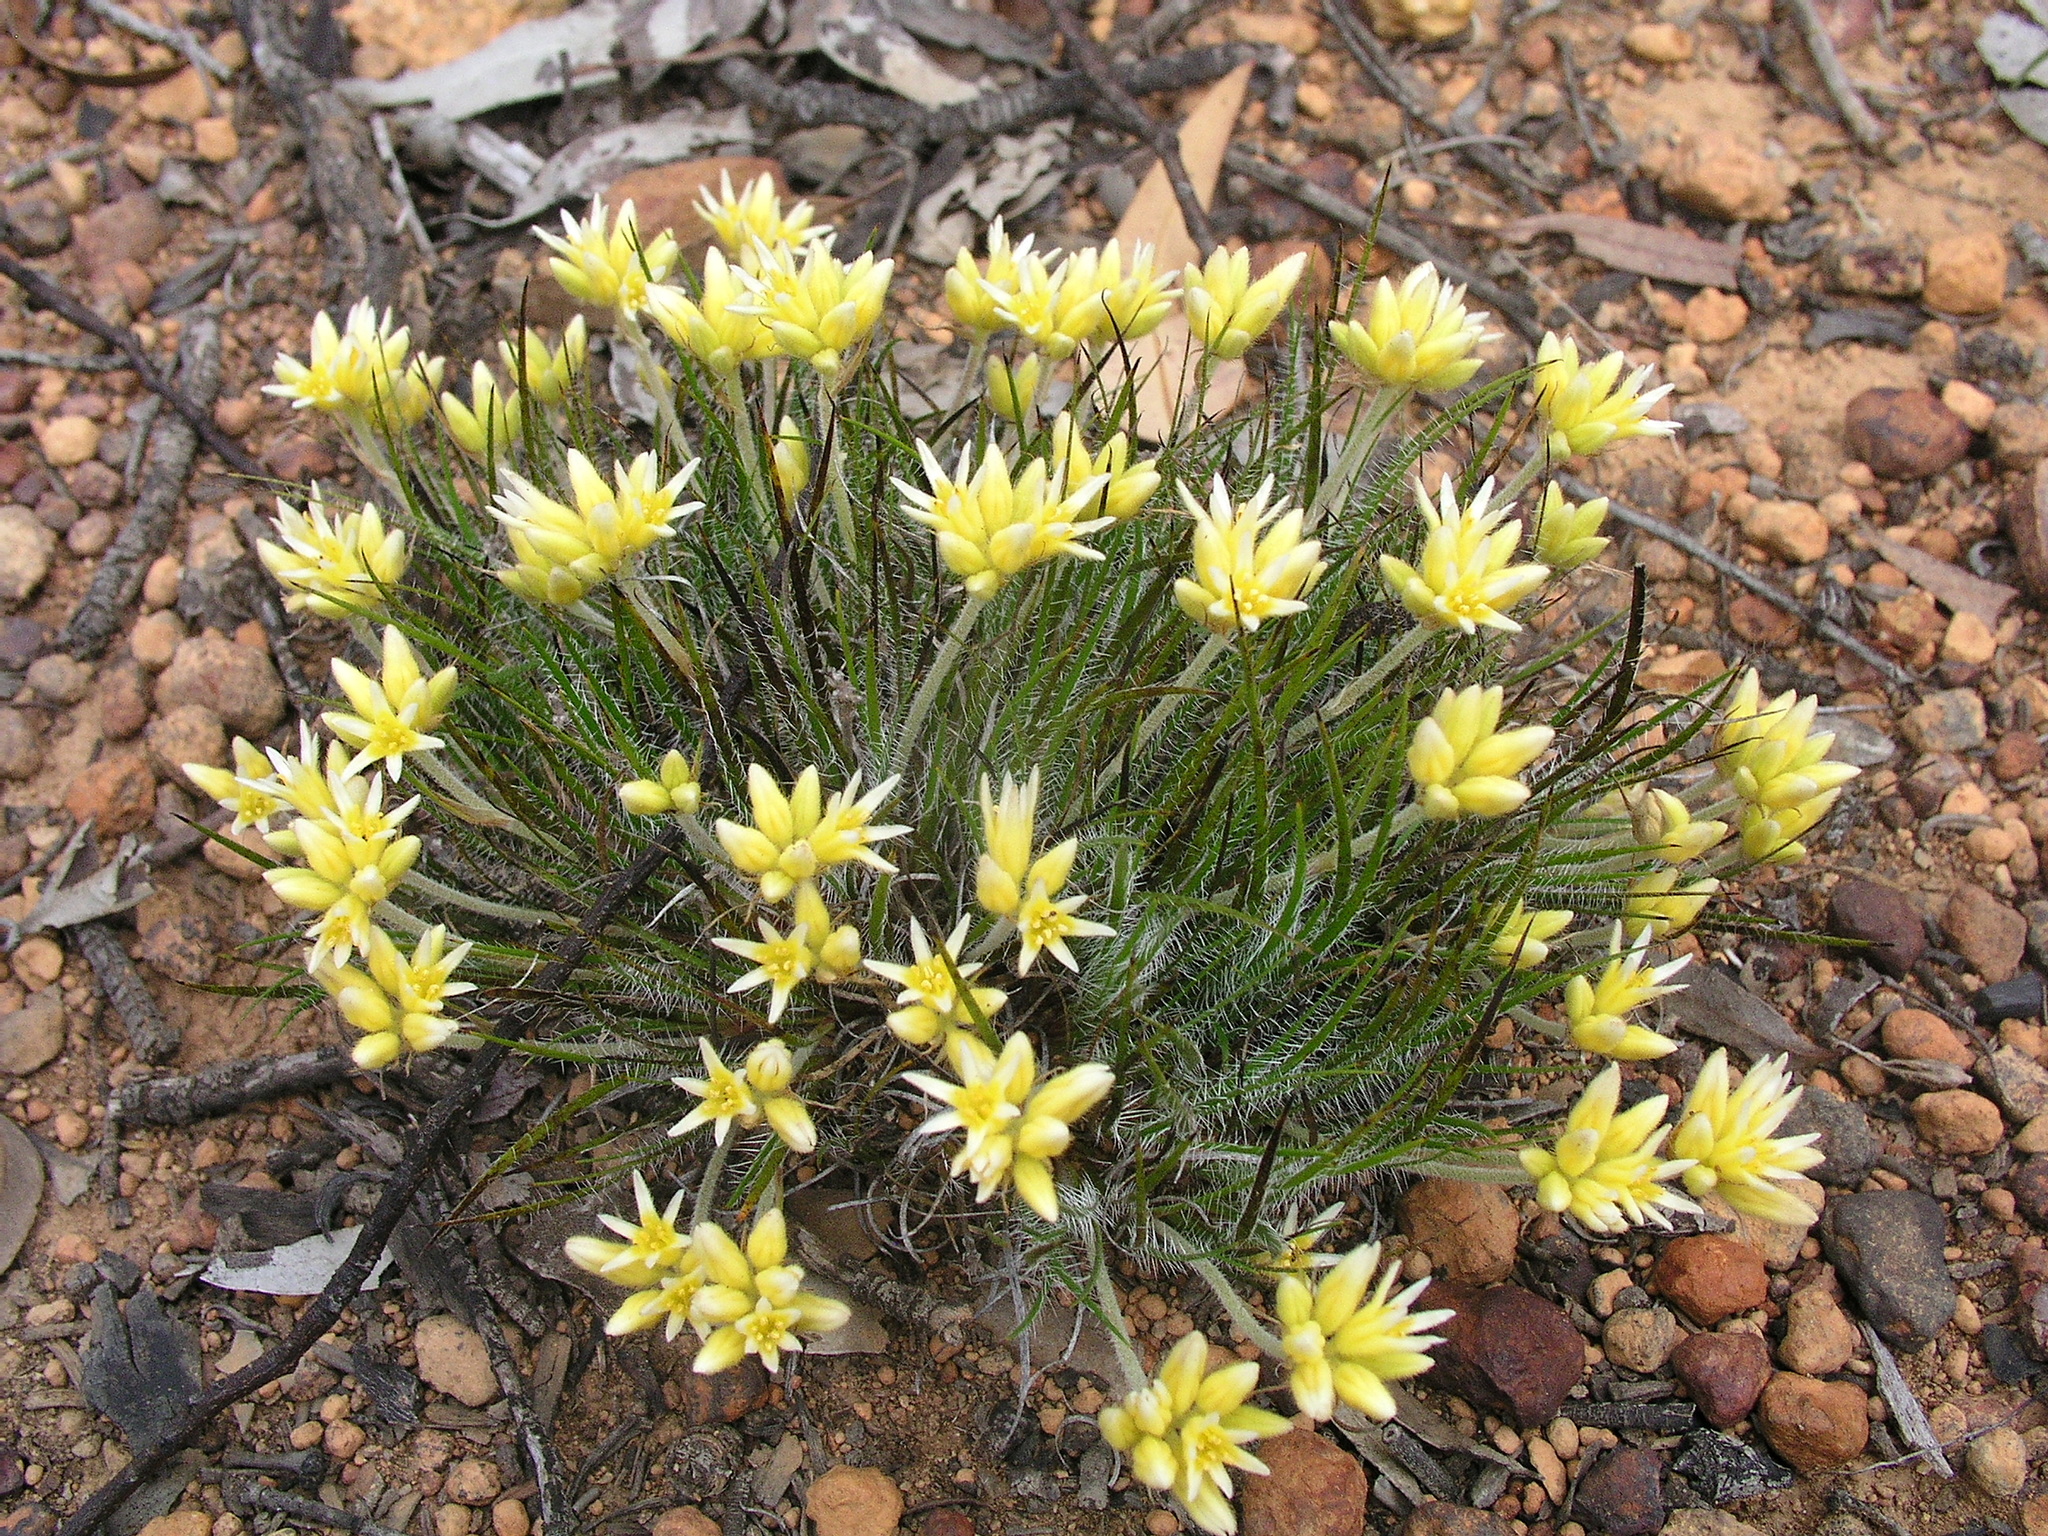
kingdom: Plantae
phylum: Tracheophyta
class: Liliopsida
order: Commelinales
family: Haemodoraceae
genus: Conostylis
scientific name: Conostylis setigera
